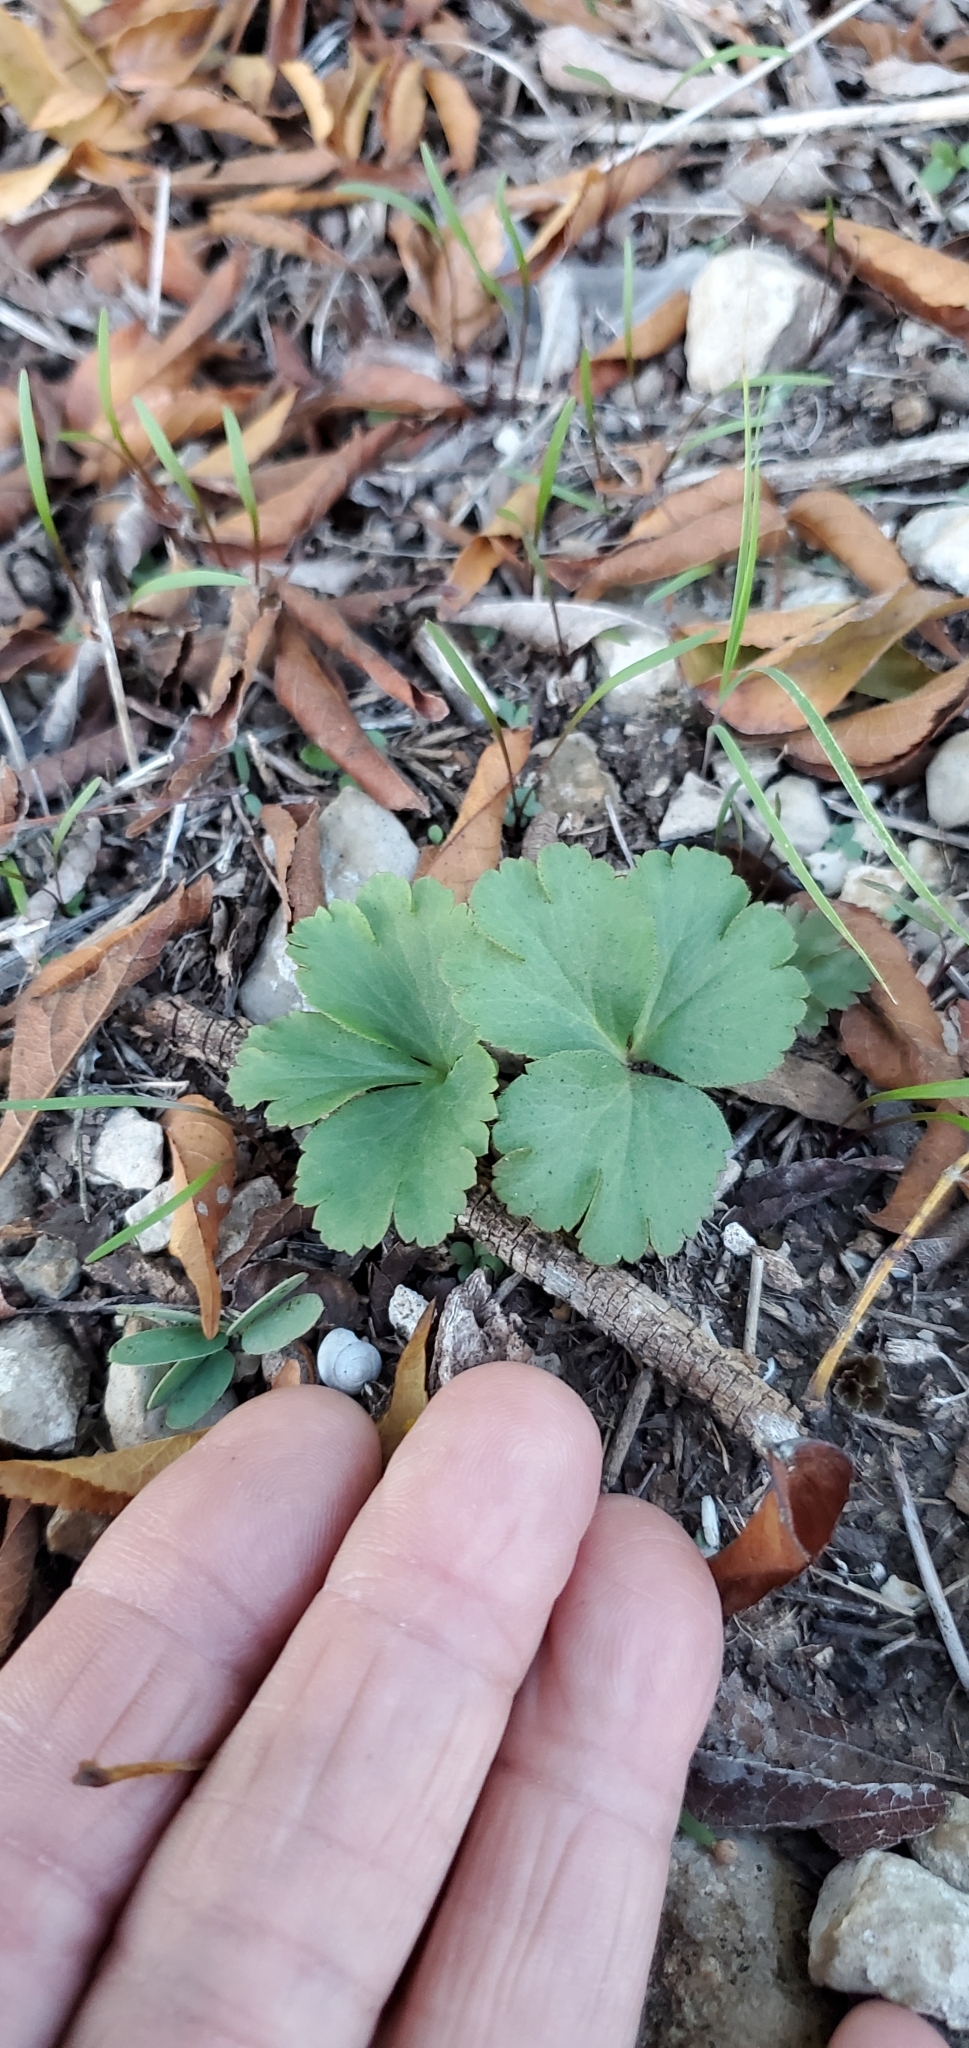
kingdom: Plantae
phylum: Tracheophyta
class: Magnoliopsida
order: Ranunculales
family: Ranunculaceae
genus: Anemone
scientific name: Anemone berlandieri
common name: Ten-petal anemone
